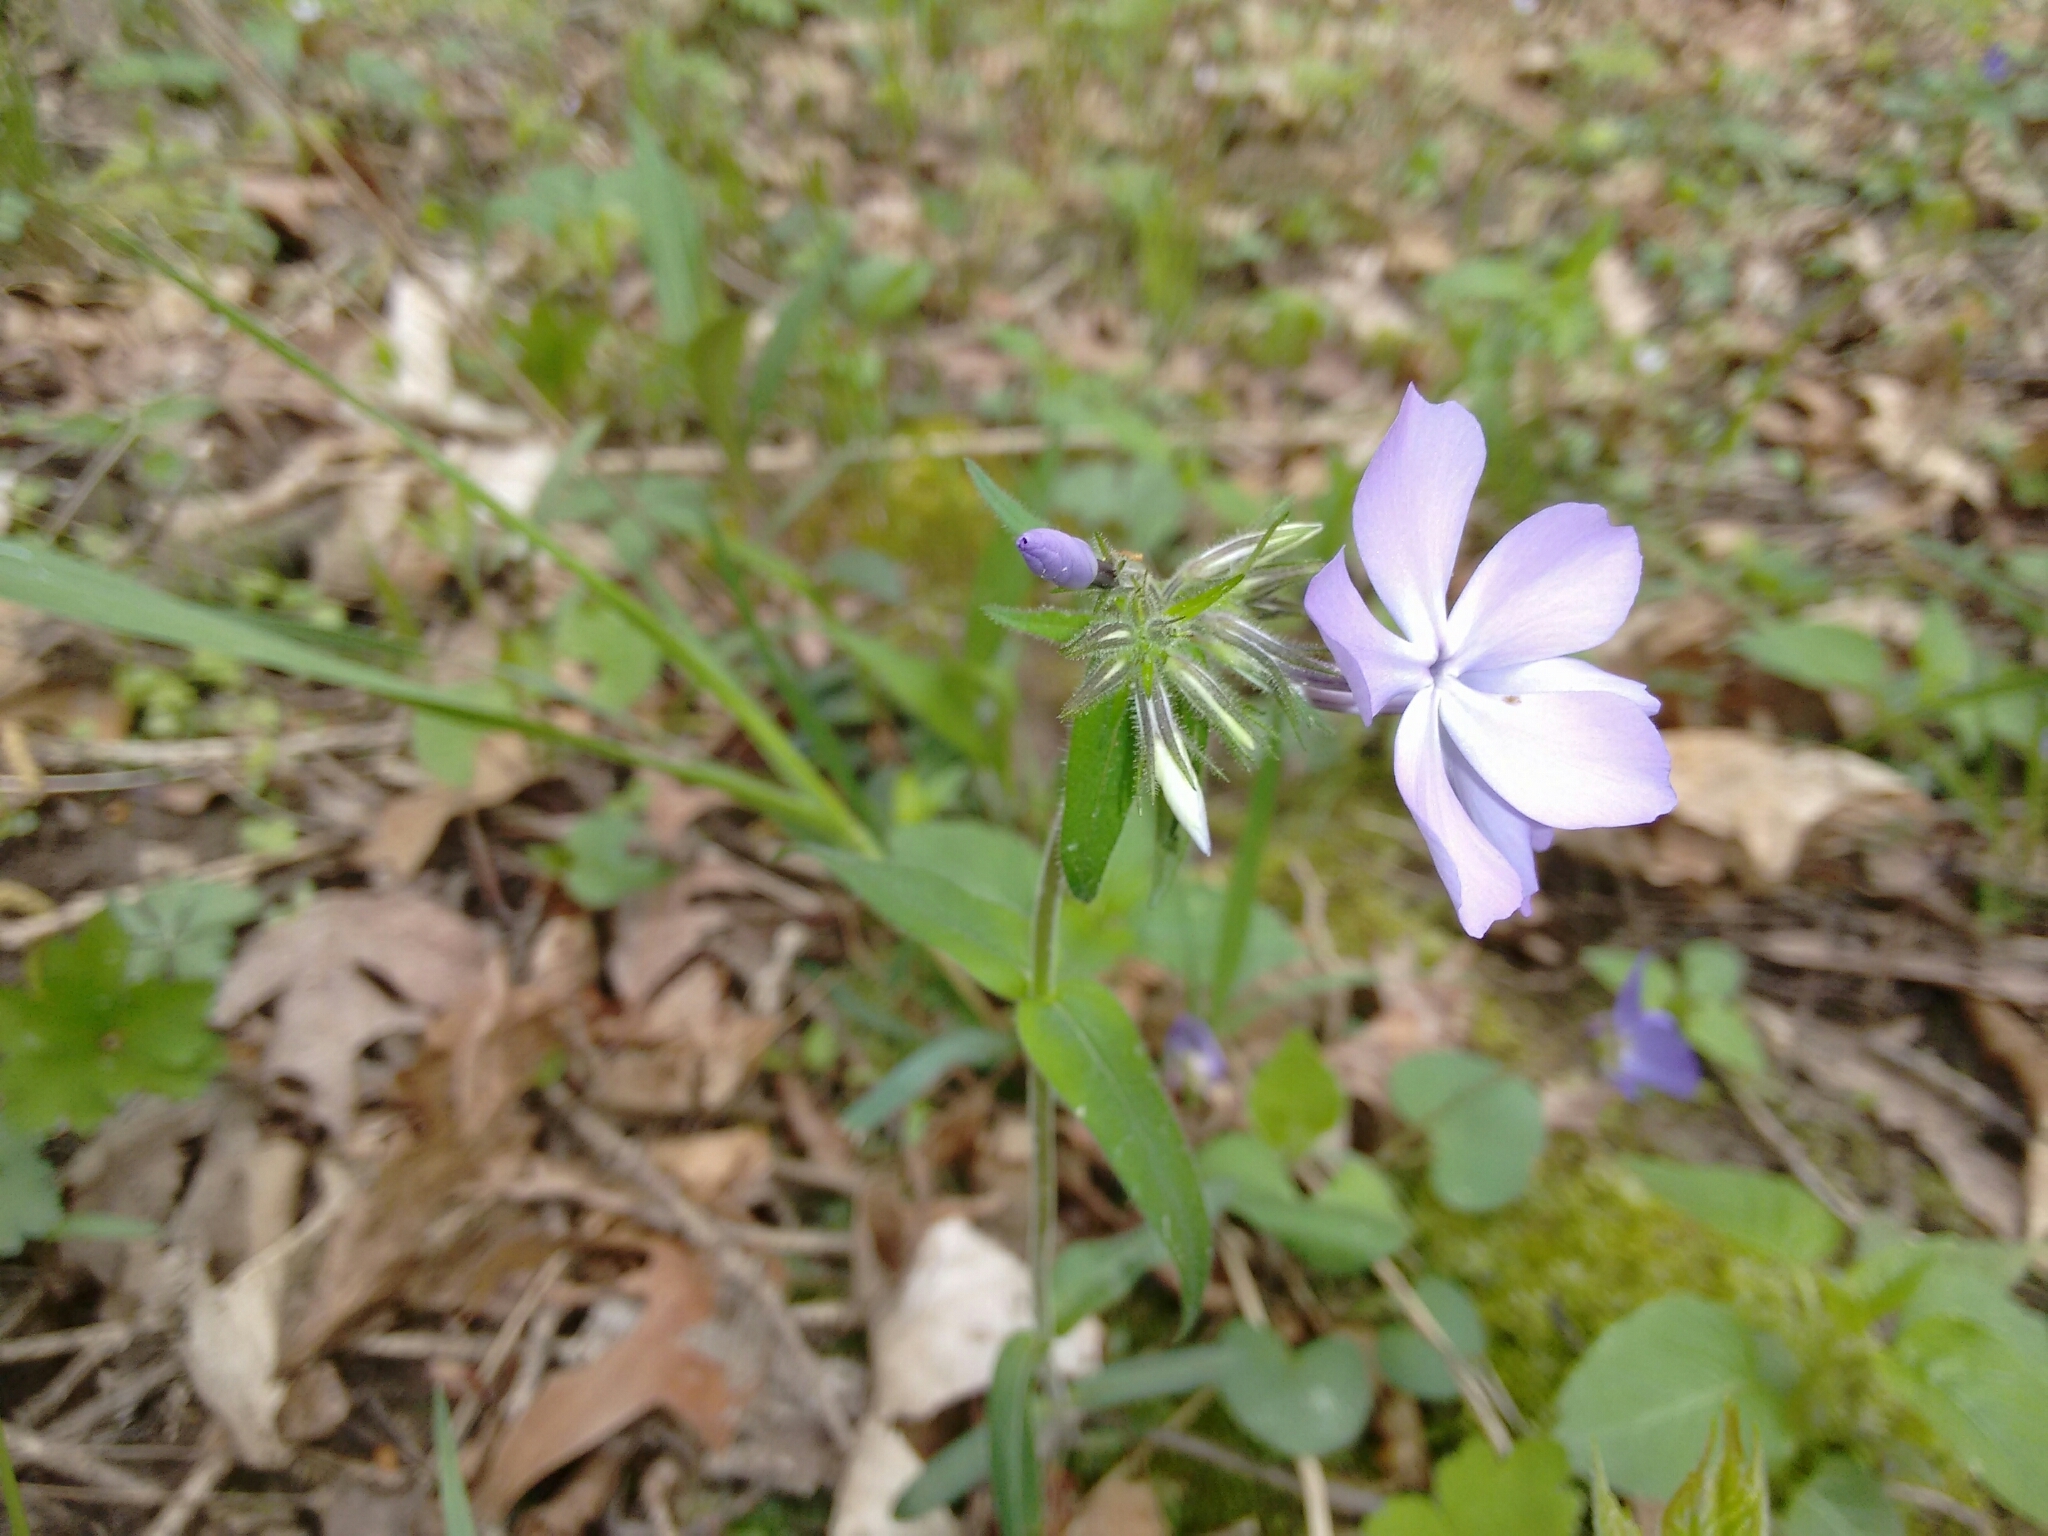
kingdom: Plantae
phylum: Tracheophyta
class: Magnoliopsida
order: Ericales
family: Polemoniaceae
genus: Phlox
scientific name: Phlox divaricata
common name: Blue phlox
